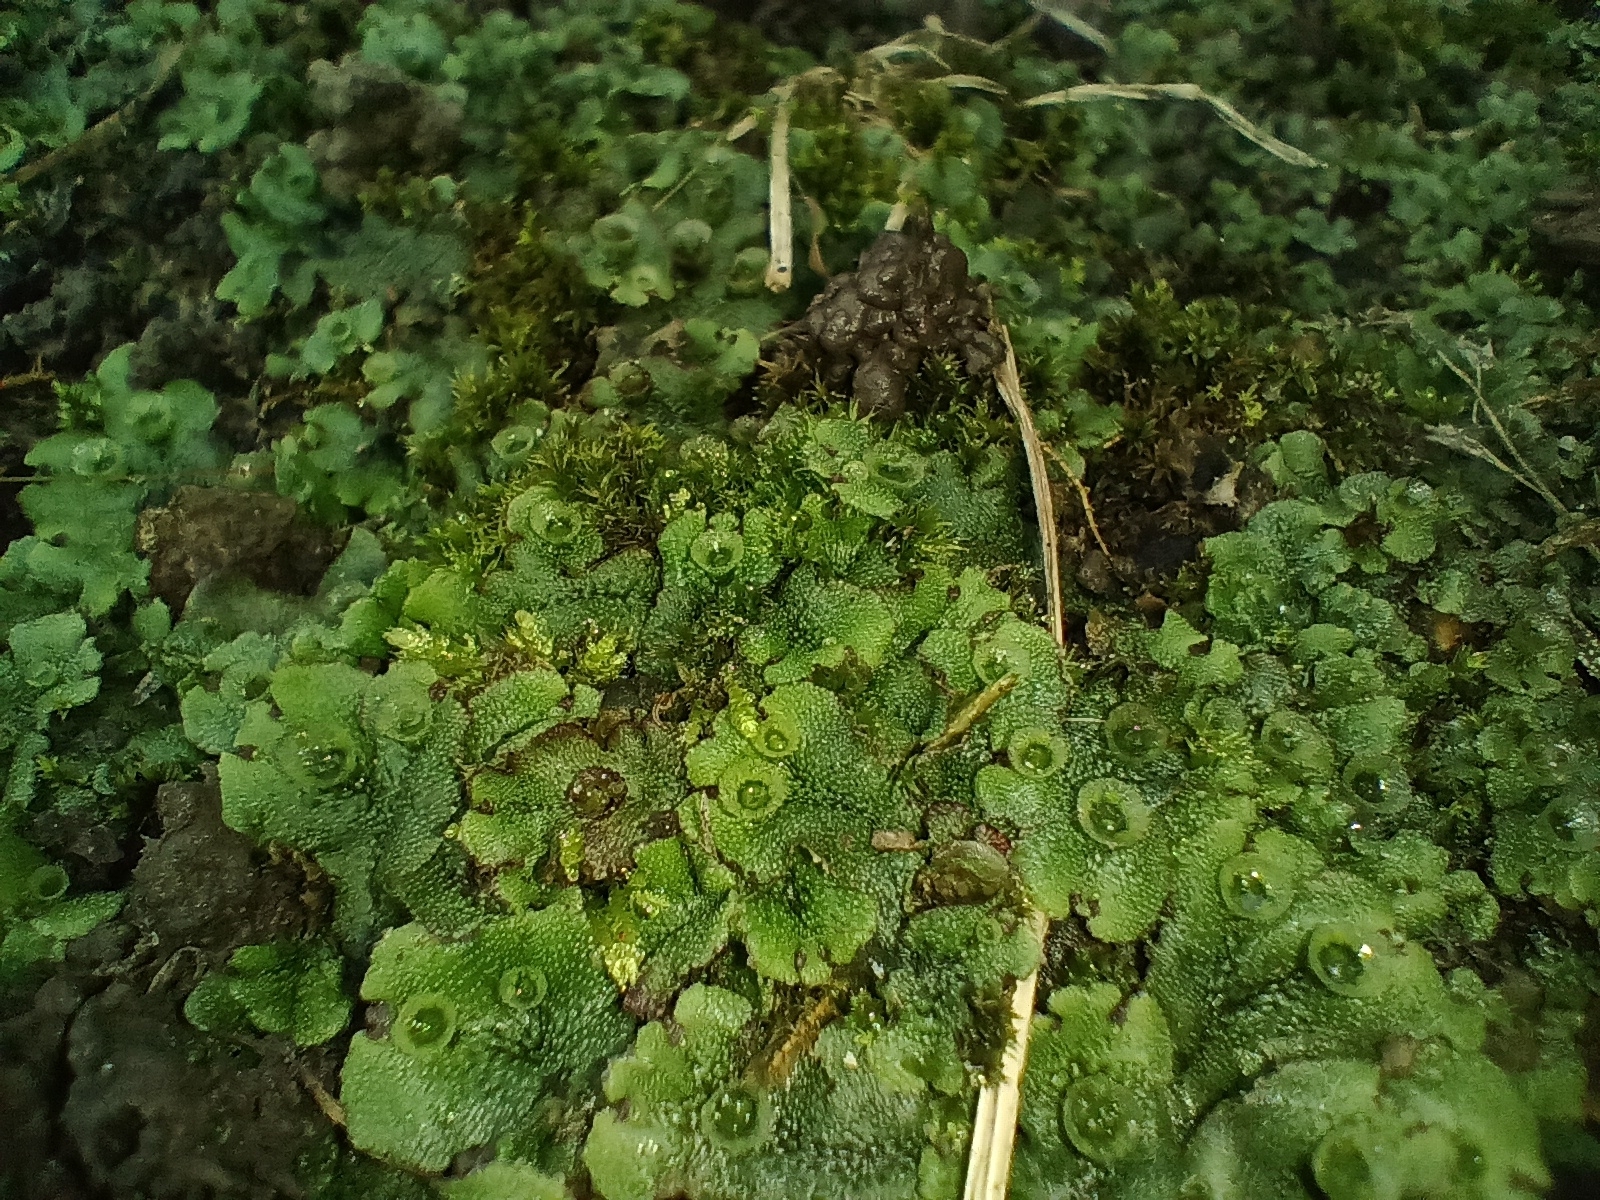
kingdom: Plantae
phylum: Marchantiophyta
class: Marchantiopsida
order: Marchantiales
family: Marchantiaceae
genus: Marchantia
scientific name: Marchantia polymorpha
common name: Common liverwort
